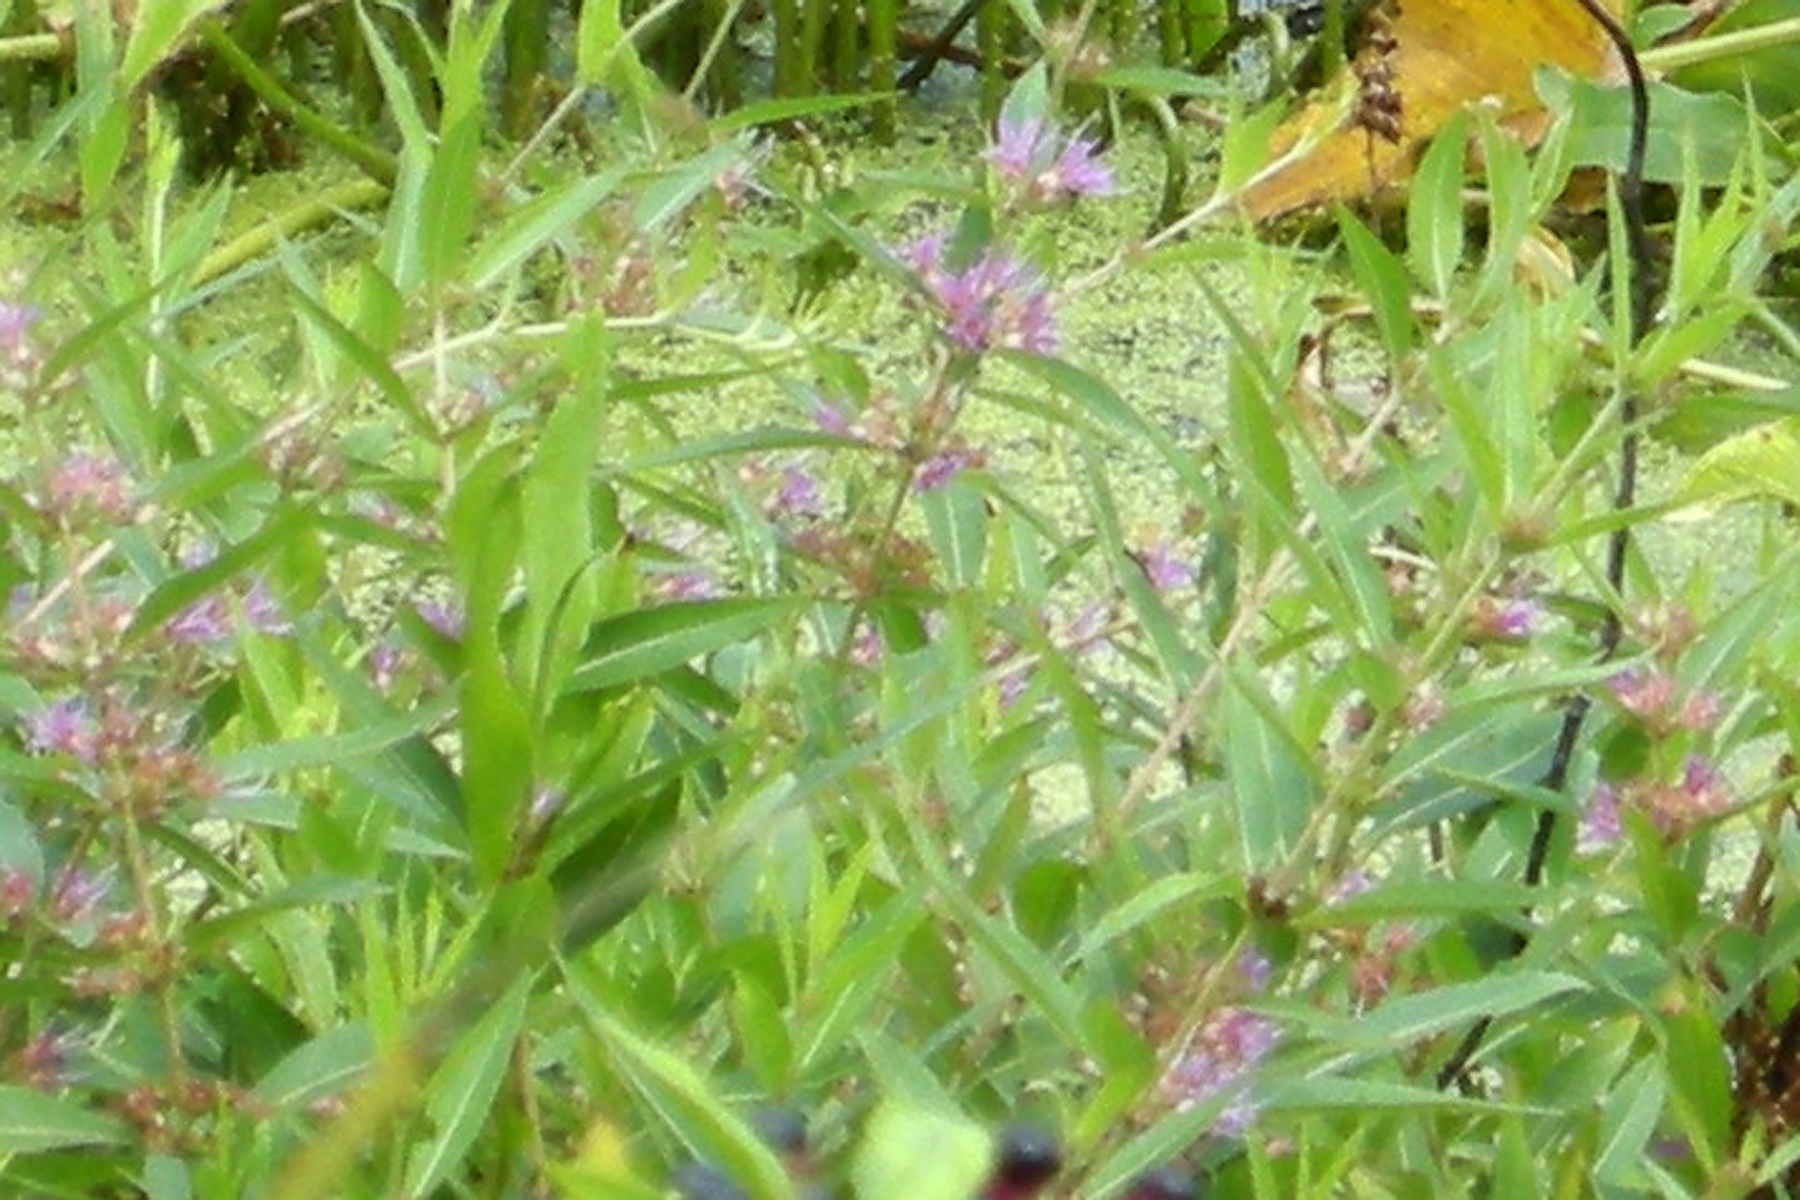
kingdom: Plantae
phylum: Tracheophyta
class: Magnoliopsida
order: Myrtales
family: Lythraceae
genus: Decodon
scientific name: Decodon verticillatus
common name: Hairy swamp loosestrife
